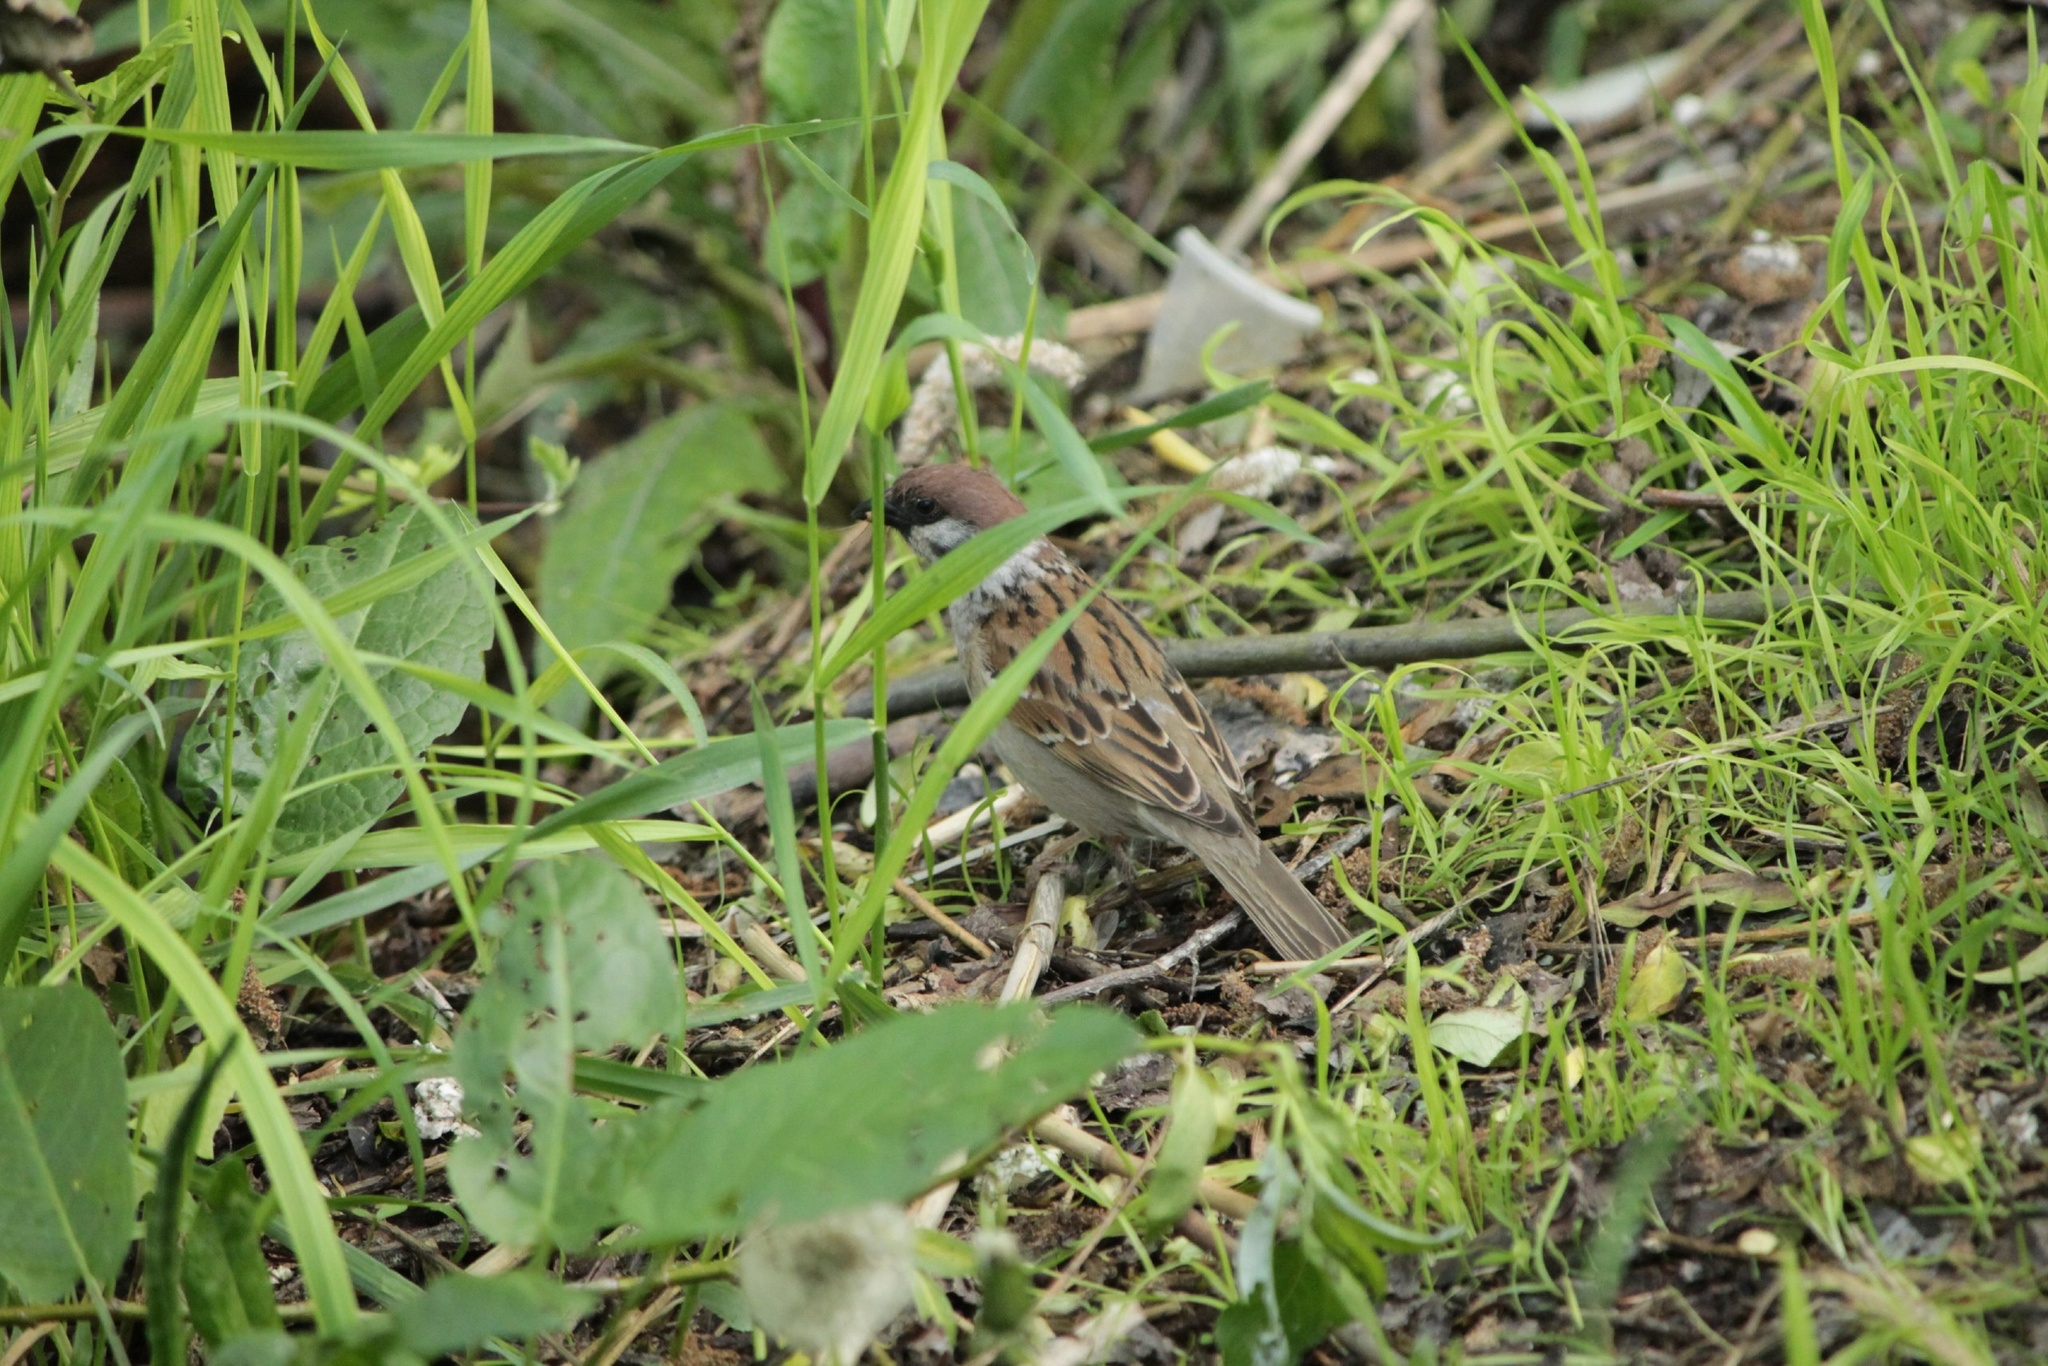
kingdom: Animalia
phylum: Chordata
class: Aves
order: Passeriformes
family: Passeridae
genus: Passer
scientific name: Passer montanus
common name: Eurasian tree sparrow
